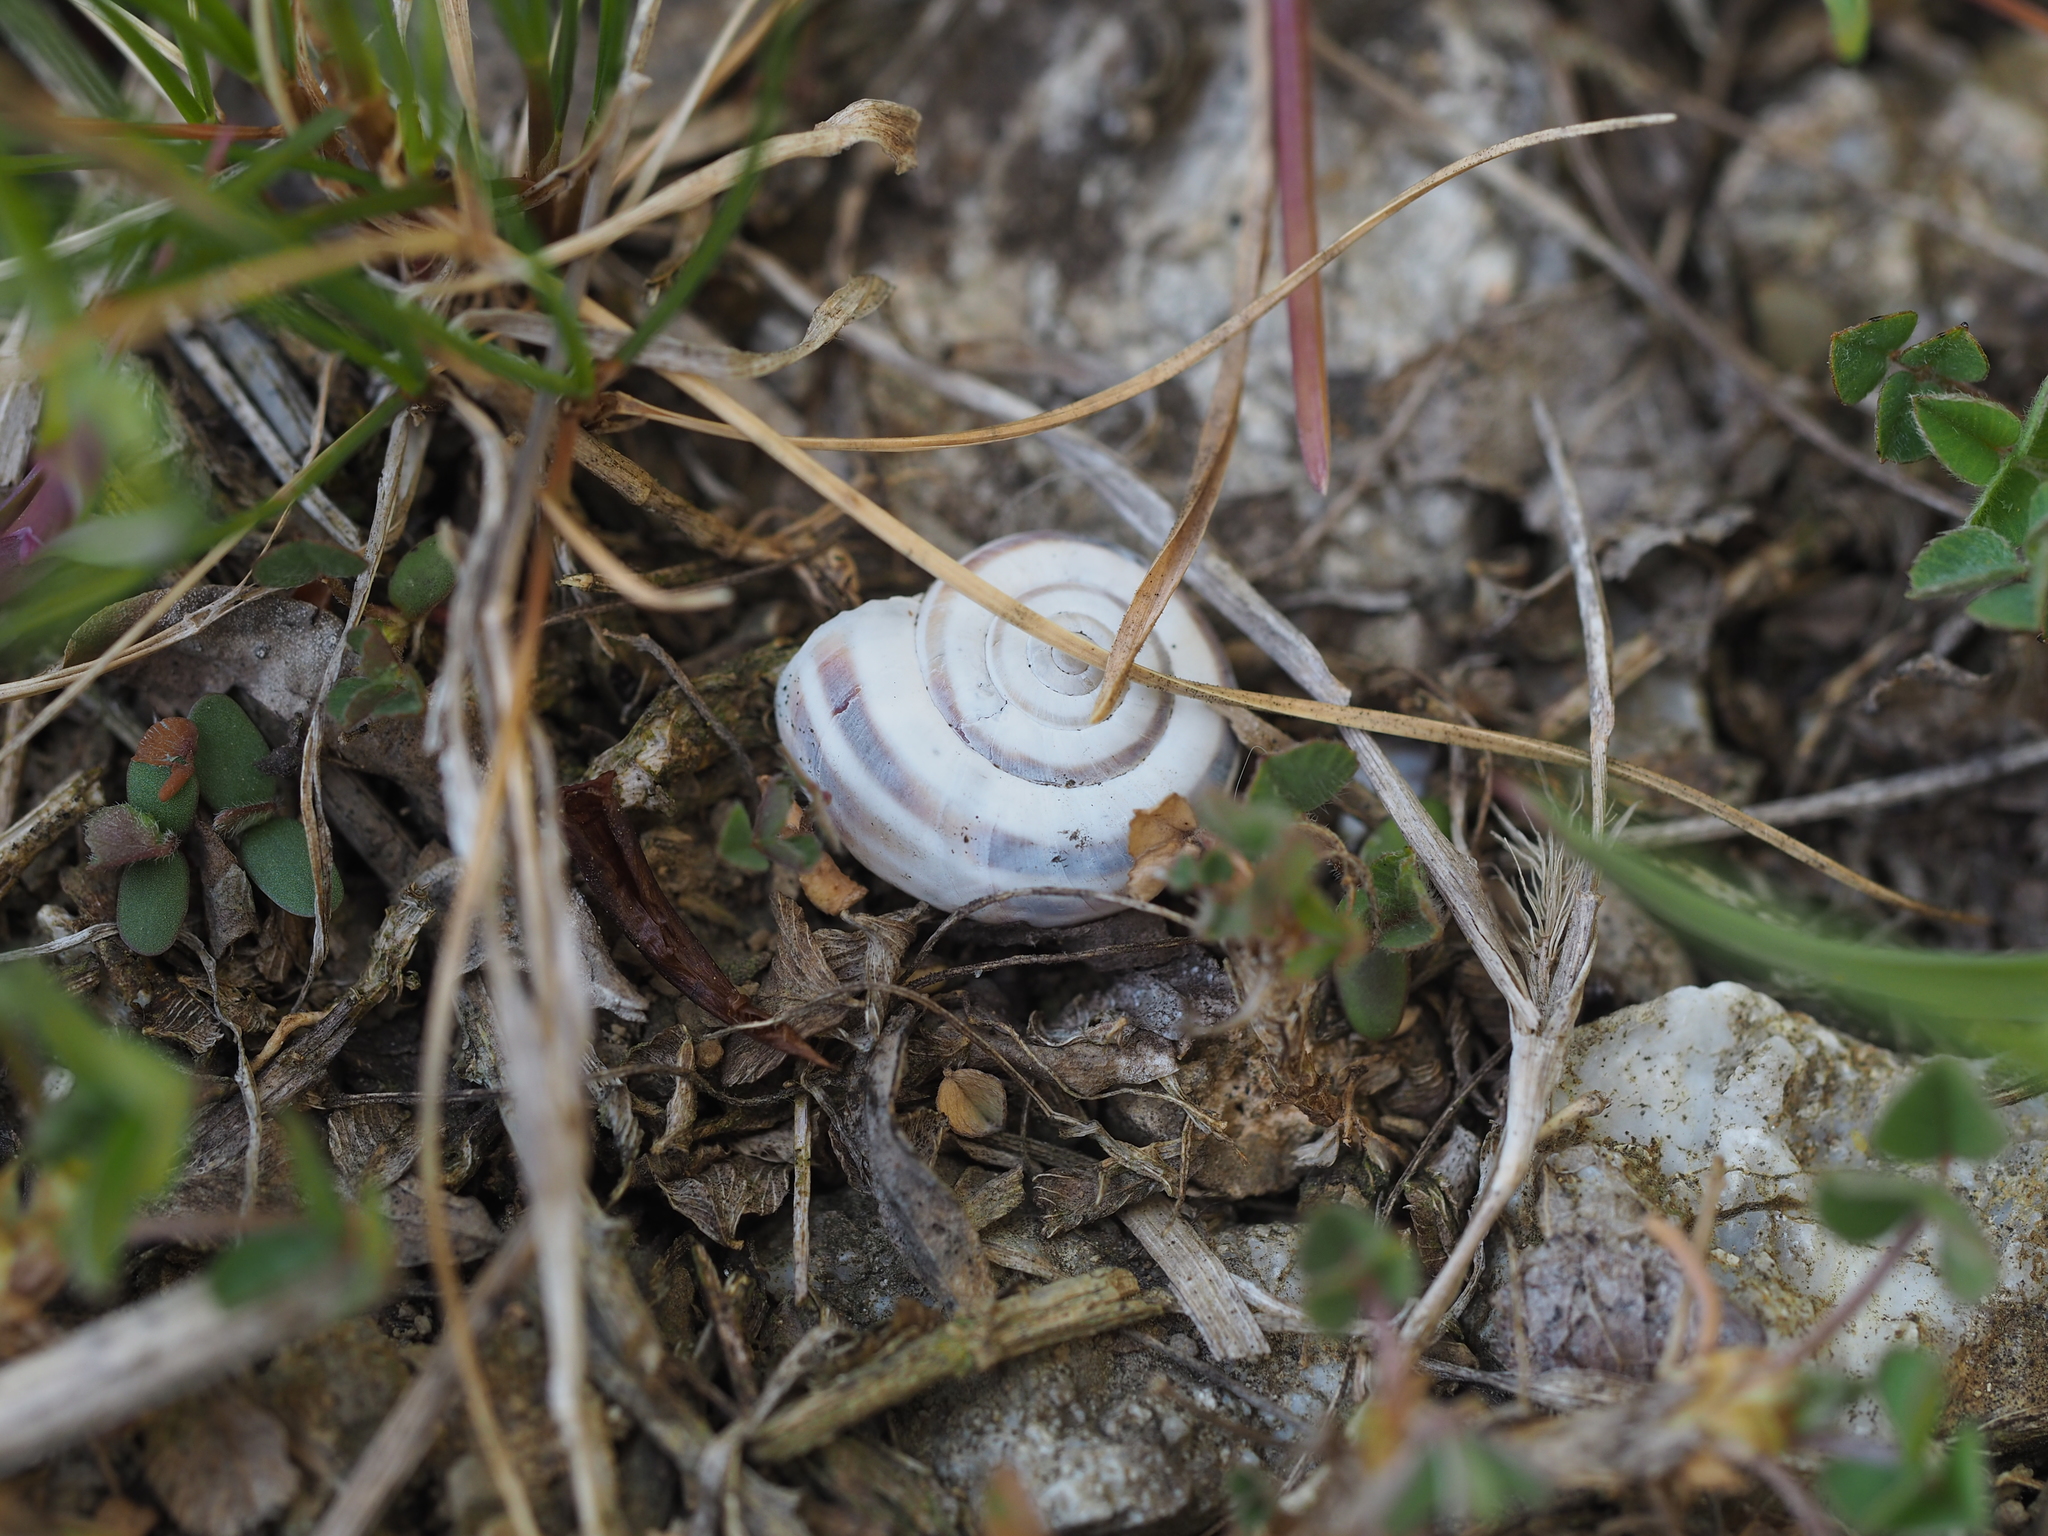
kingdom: Animalia
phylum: Mollusca
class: Gastropoda
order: Stylommatophora
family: Geomitridae
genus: Xerolenta
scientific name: Xerolenta obvia
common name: White heath snail
